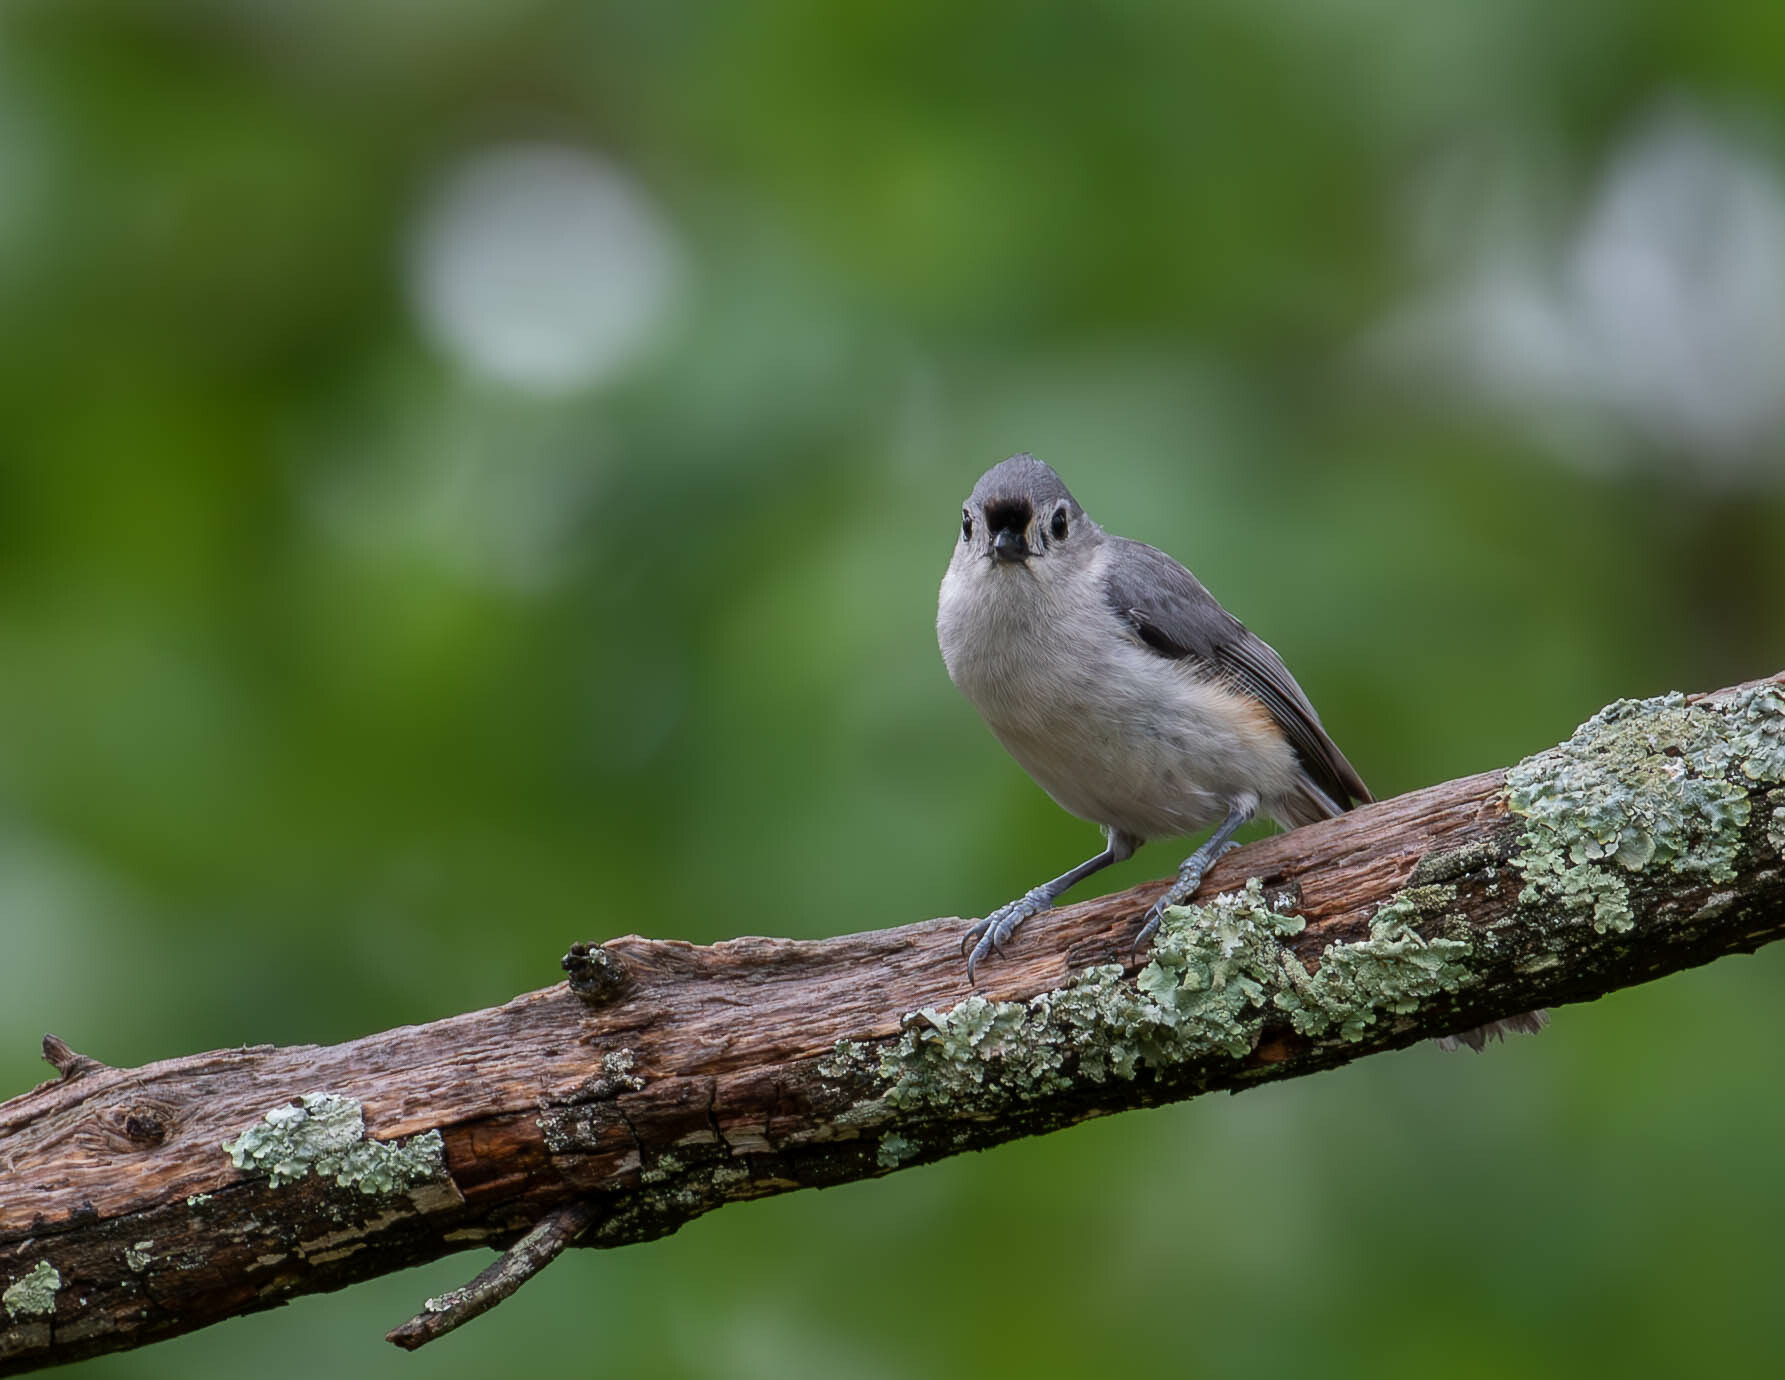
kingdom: Animalia
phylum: Chordata
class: Aves
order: Passeriformes
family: Paridae
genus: Baeolophus
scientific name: Baeolophus bicolor
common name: Tufted titmouse
